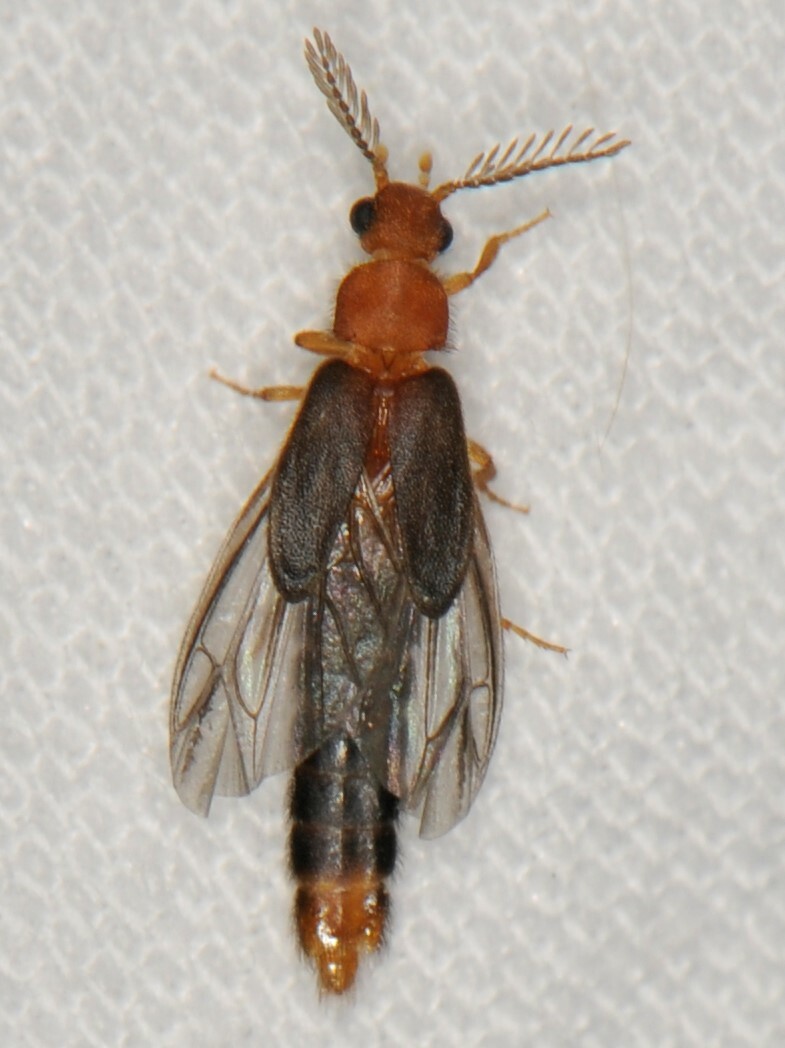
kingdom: Animalia
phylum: Arthropoda
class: Insecta
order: Coleoptera
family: Phengodidae
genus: Distremocephalus
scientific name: Distremocephalus opaculus
